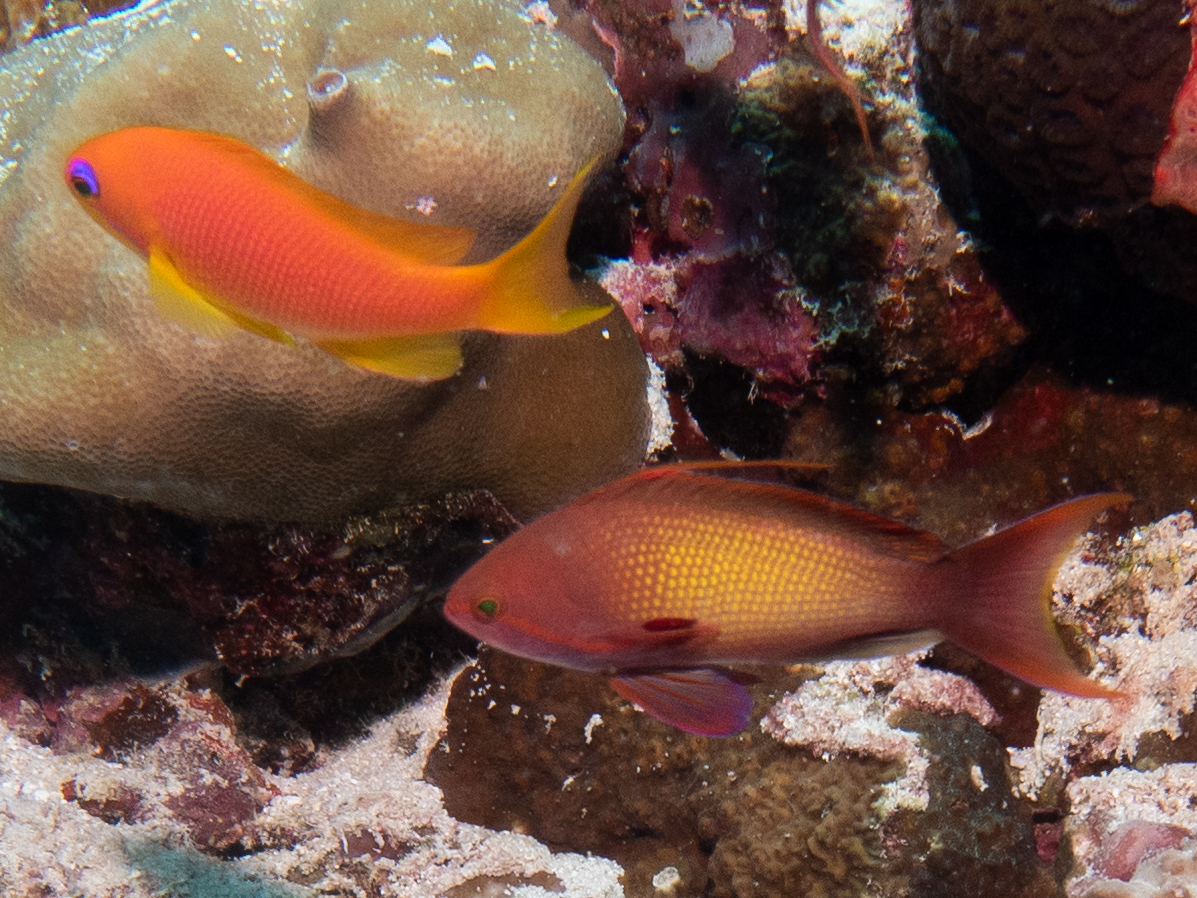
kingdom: Animalia
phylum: Chordata
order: Perciformes
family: Serranidae
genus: Pseudanthias
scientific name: Pseudanthias squamipinnis
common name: Scalefin anthias
